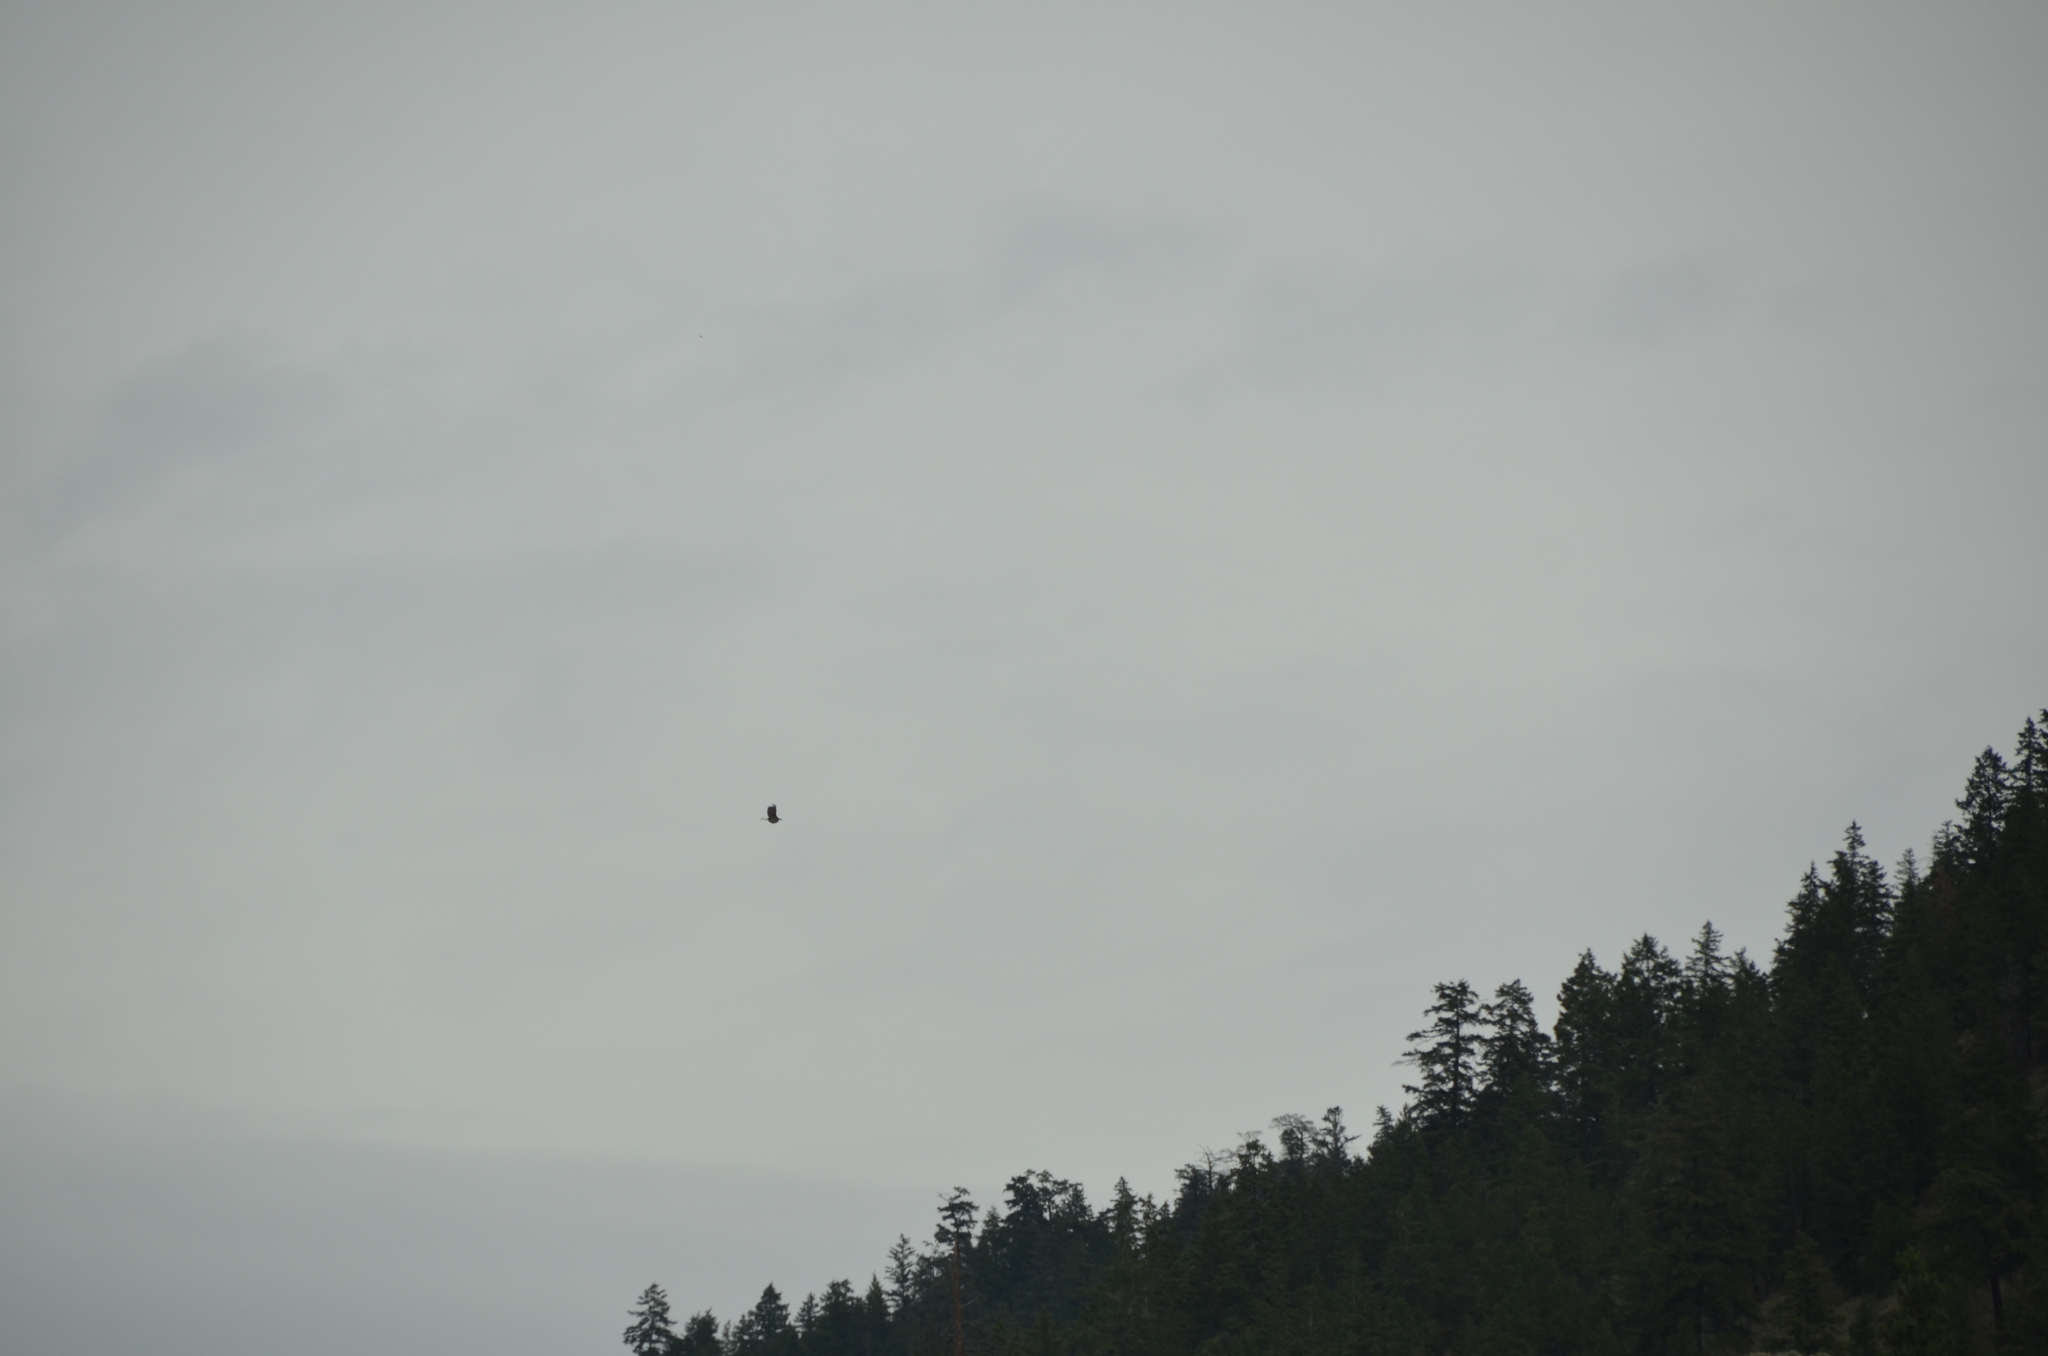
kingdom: Animalia
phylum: Chordata
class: Aves
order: Accipitriformes
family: Accipitridae
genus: Haliaeetus
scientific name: Haliaeetus leucocephalus
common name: Bald eagle
